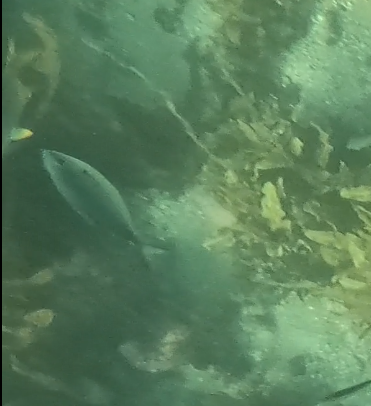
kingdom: Animalia
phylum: Chordata
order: Perciformes
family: Kyphosidae
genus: Scorpis
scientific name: Scorpis lineolata
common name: Sweep
